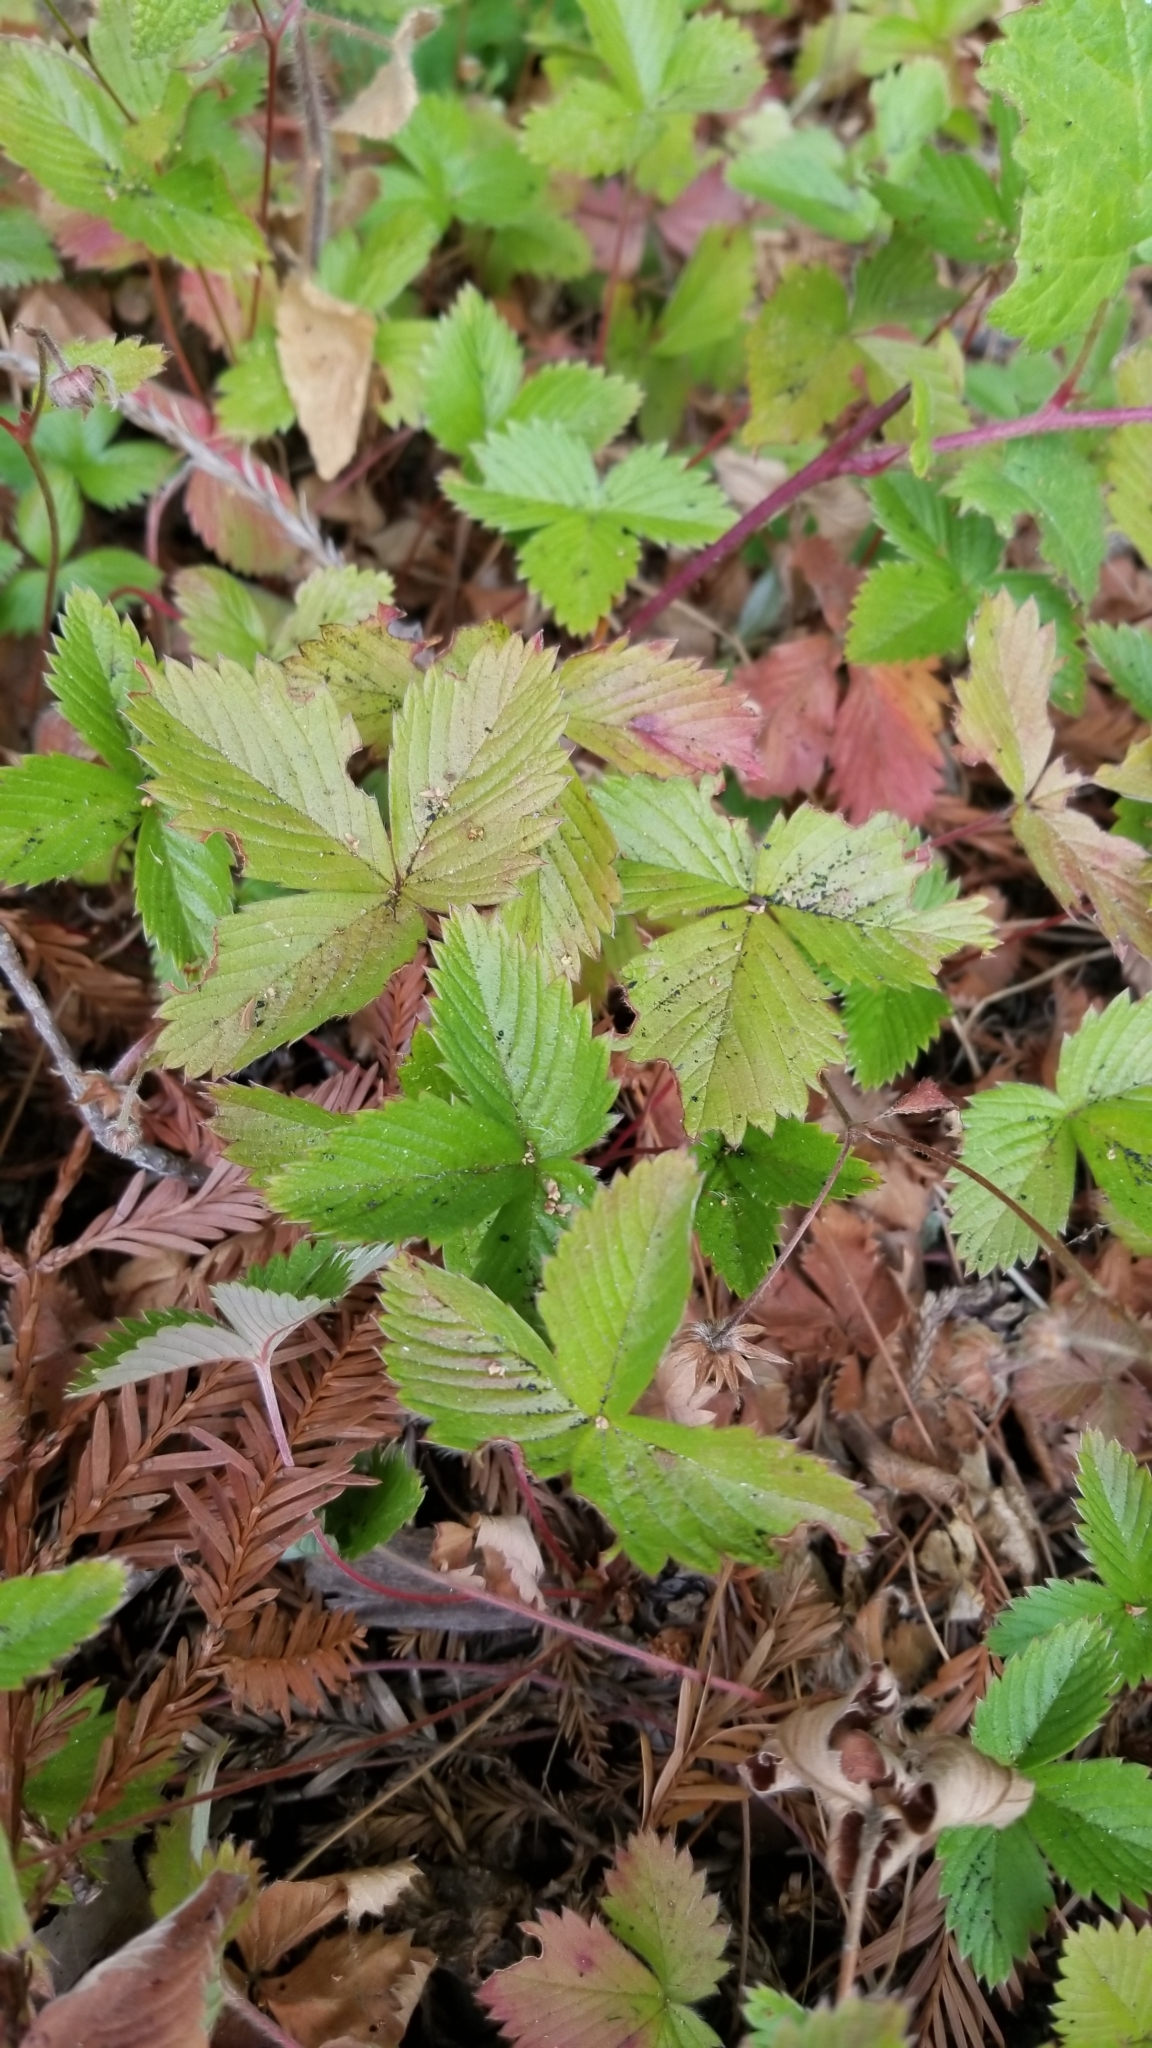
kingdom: Plantae
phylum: Tracheophyta
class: Magnoliopsida
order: Rosales
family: Rosaceae
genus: Fragaria
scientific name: Fragaria vesca
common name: Wild strawberry
